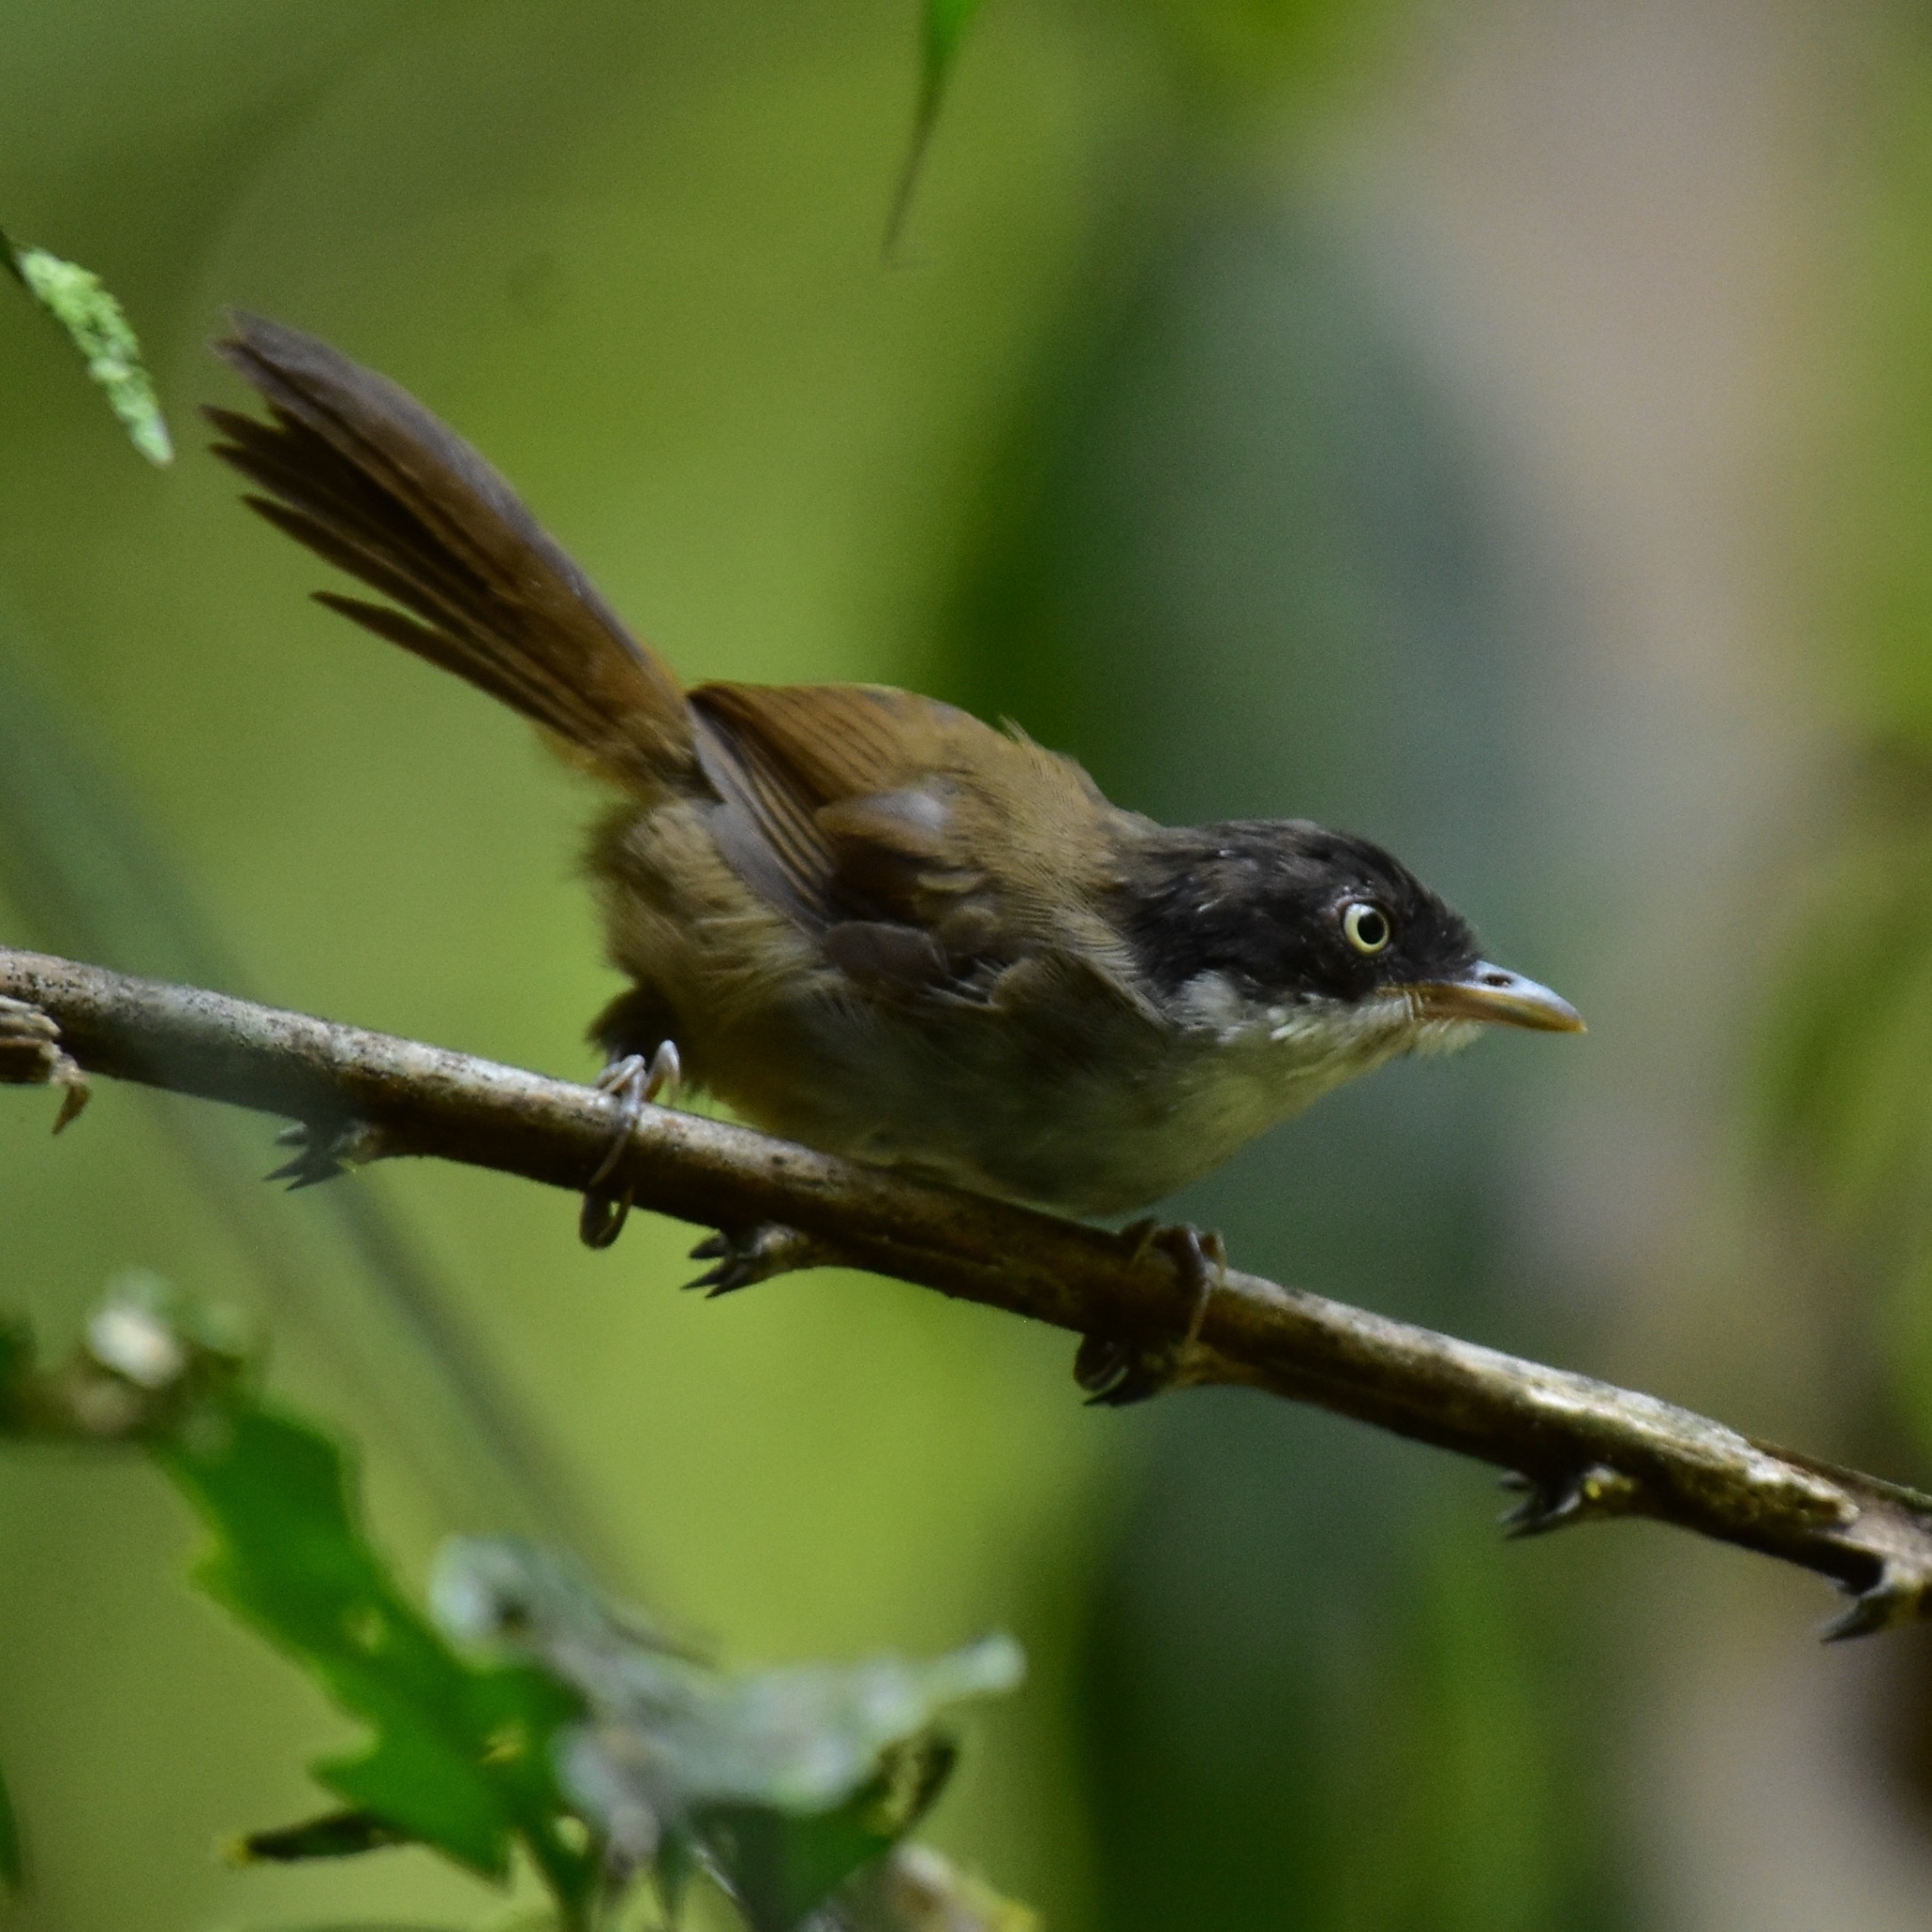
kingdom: Animalia
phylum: Chordata
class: Aves
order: Passeriformes
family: Timaliidae
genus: Rhopocichla
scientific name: Rhopocichla atriceps
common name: Dark-fronted babbler
